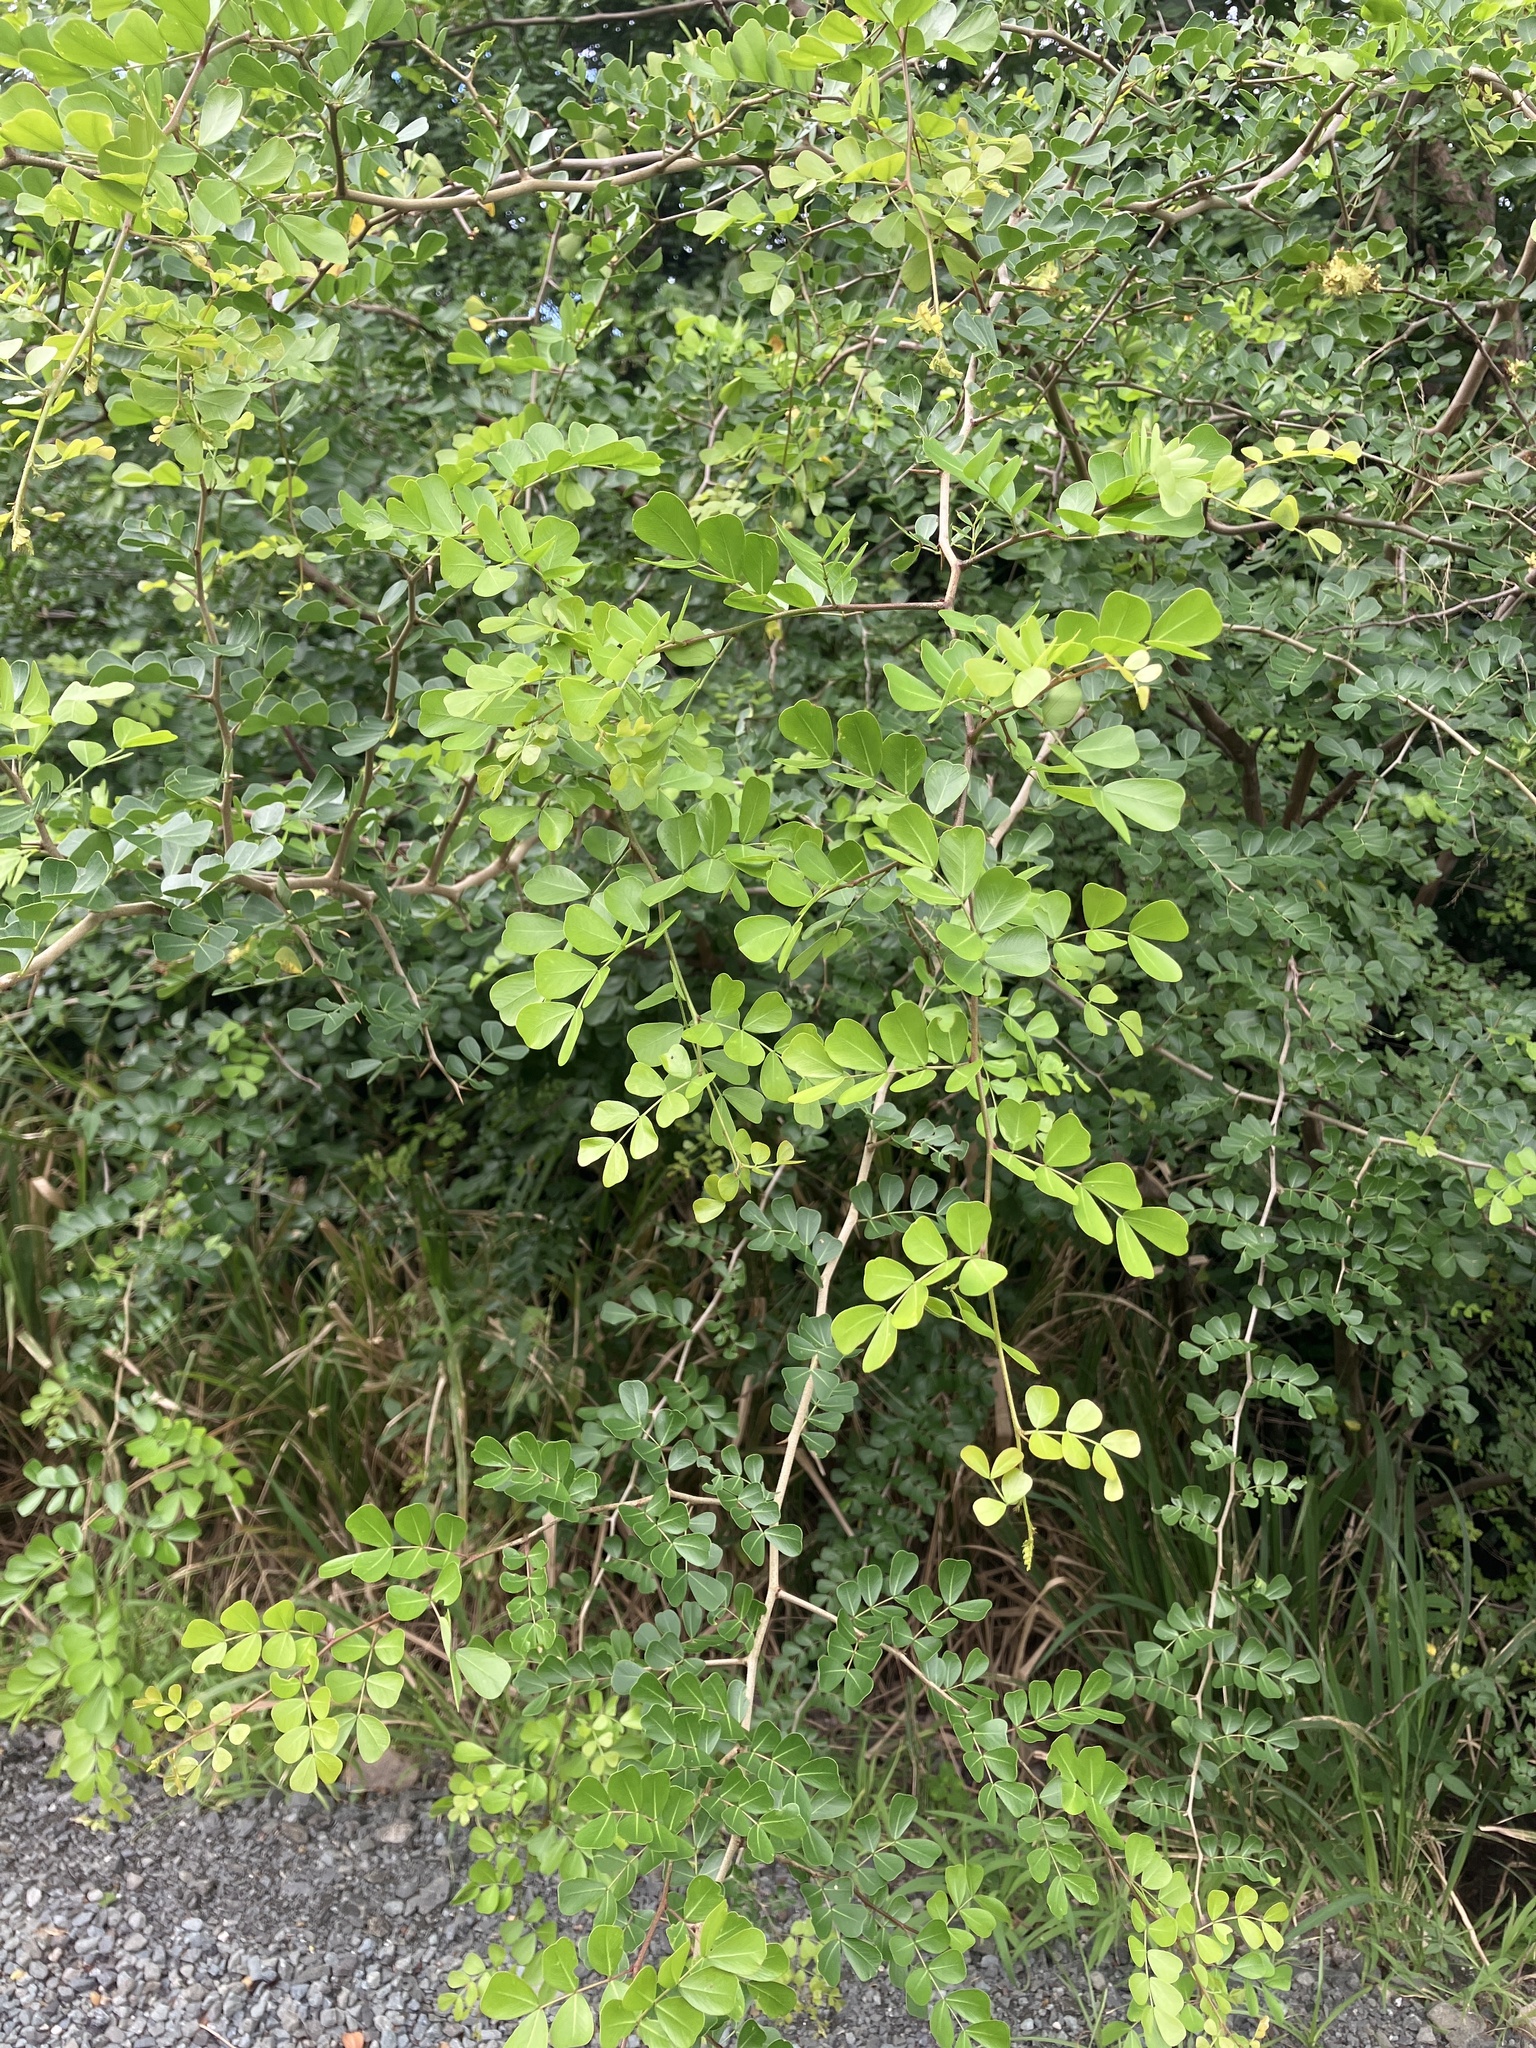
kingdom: Plantae
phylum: Tracheophyta
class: Magnoliopsida
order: Fabales
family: Fabaceae
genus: Haematoxylum
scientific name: Haematoxylum campechianum
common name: Logwood
